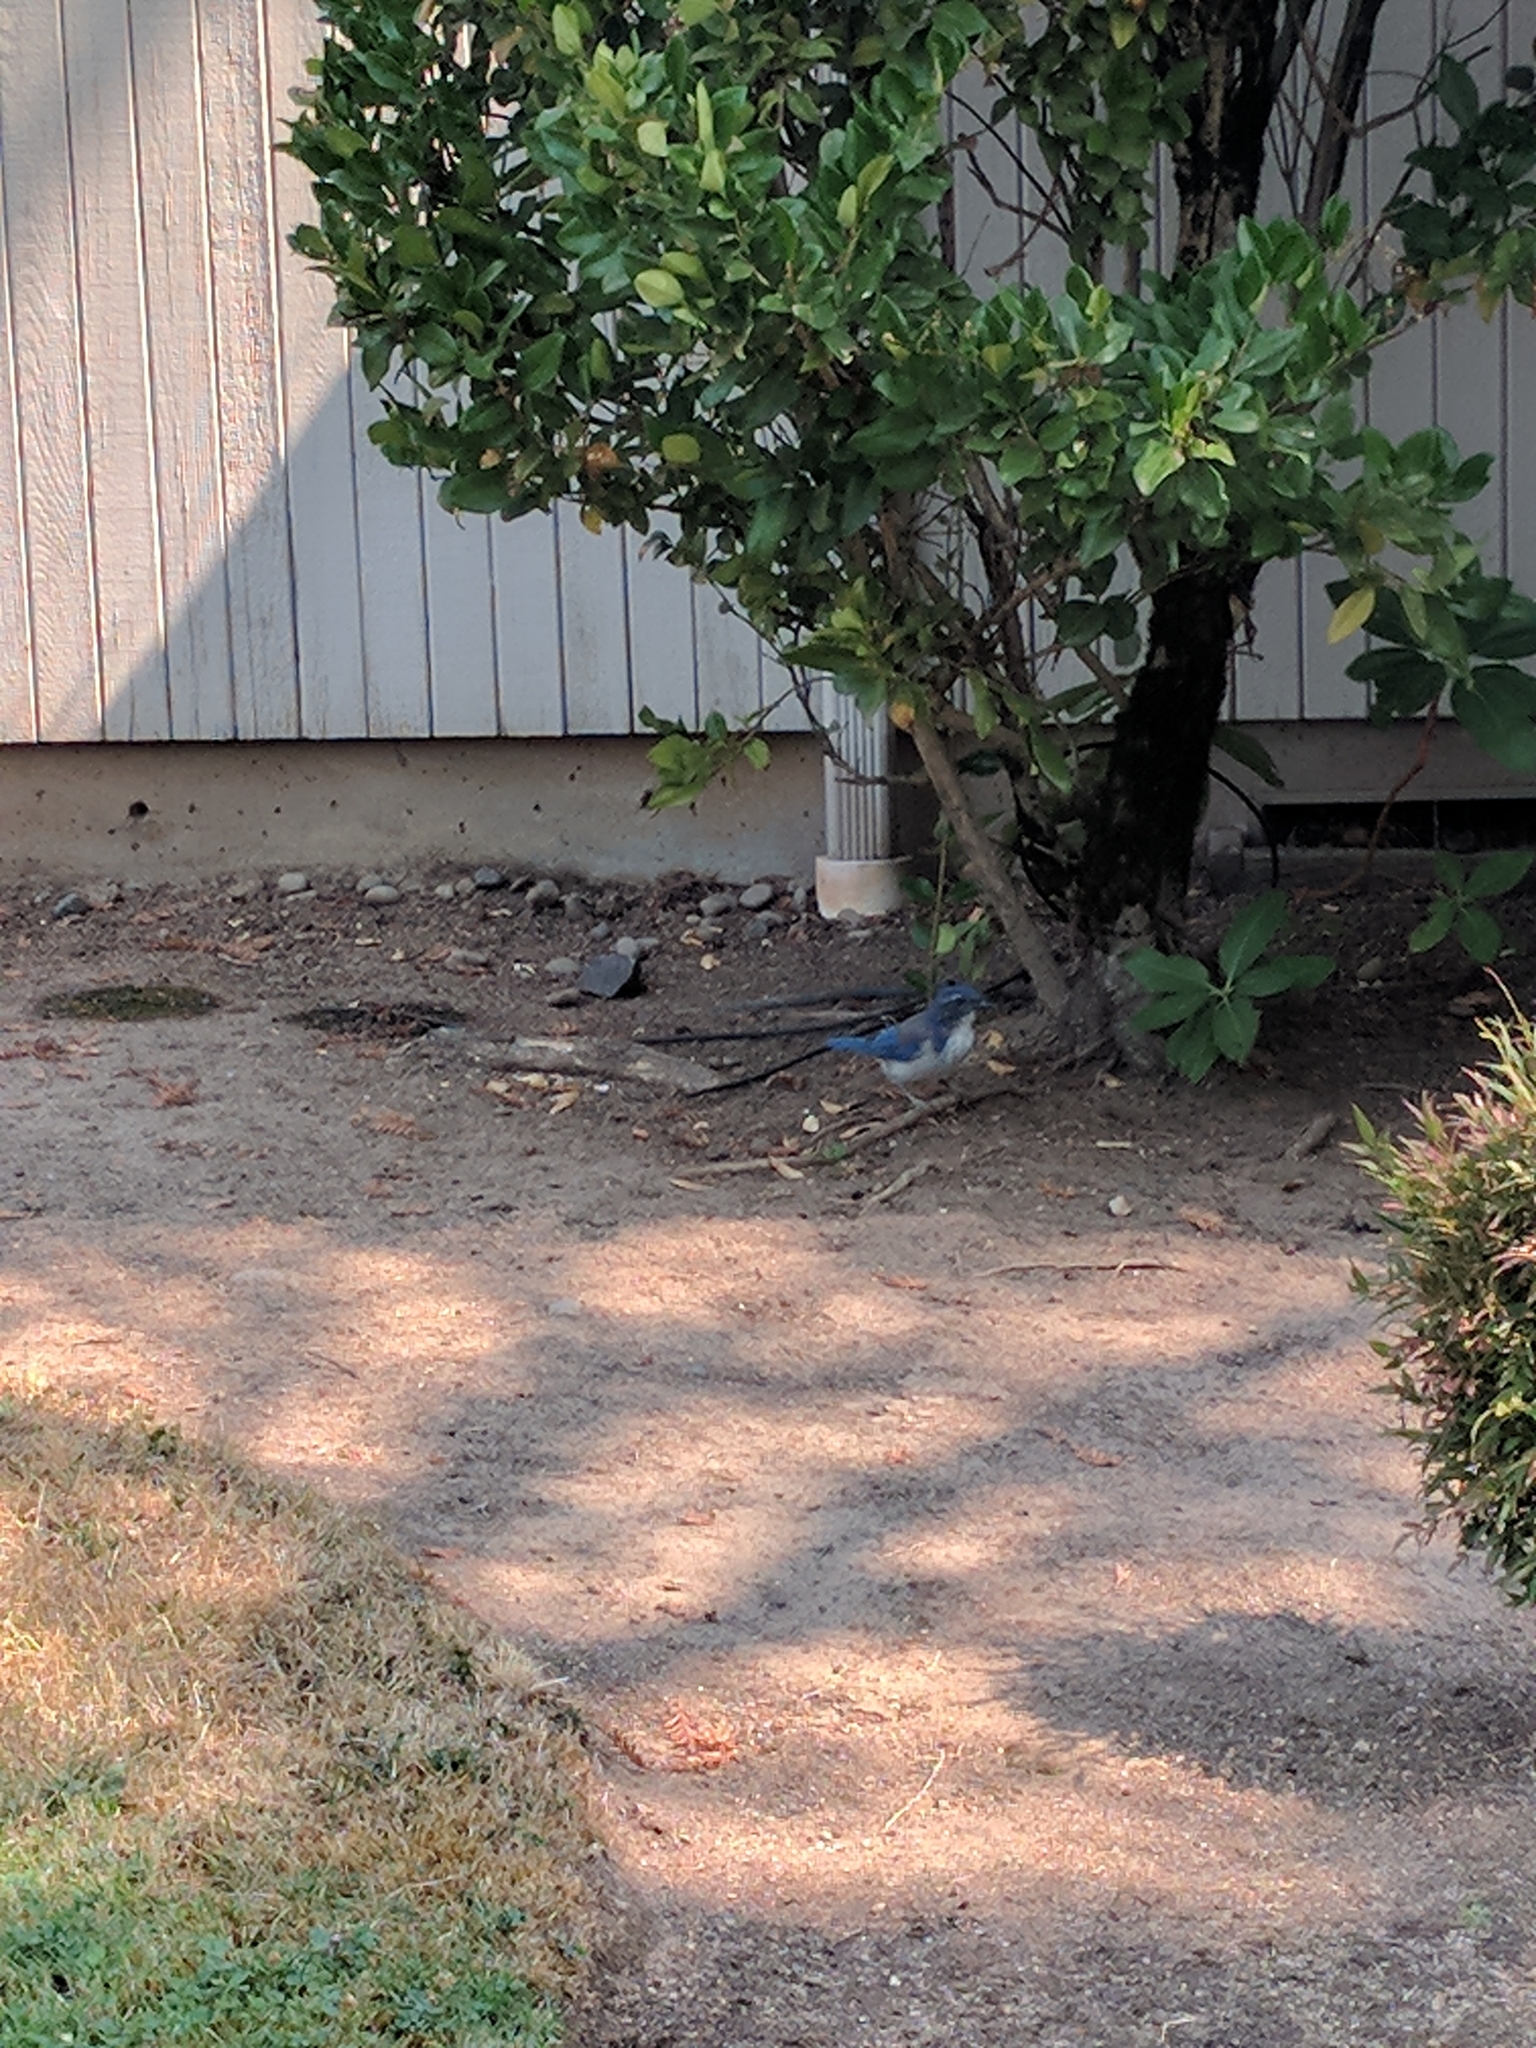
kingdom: Animalia
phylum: Chordata
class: Aves
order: Passeriformes
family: Corvidae
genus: Aphelocoma
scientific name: Aphelocoma californica
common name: California scrub-jay
